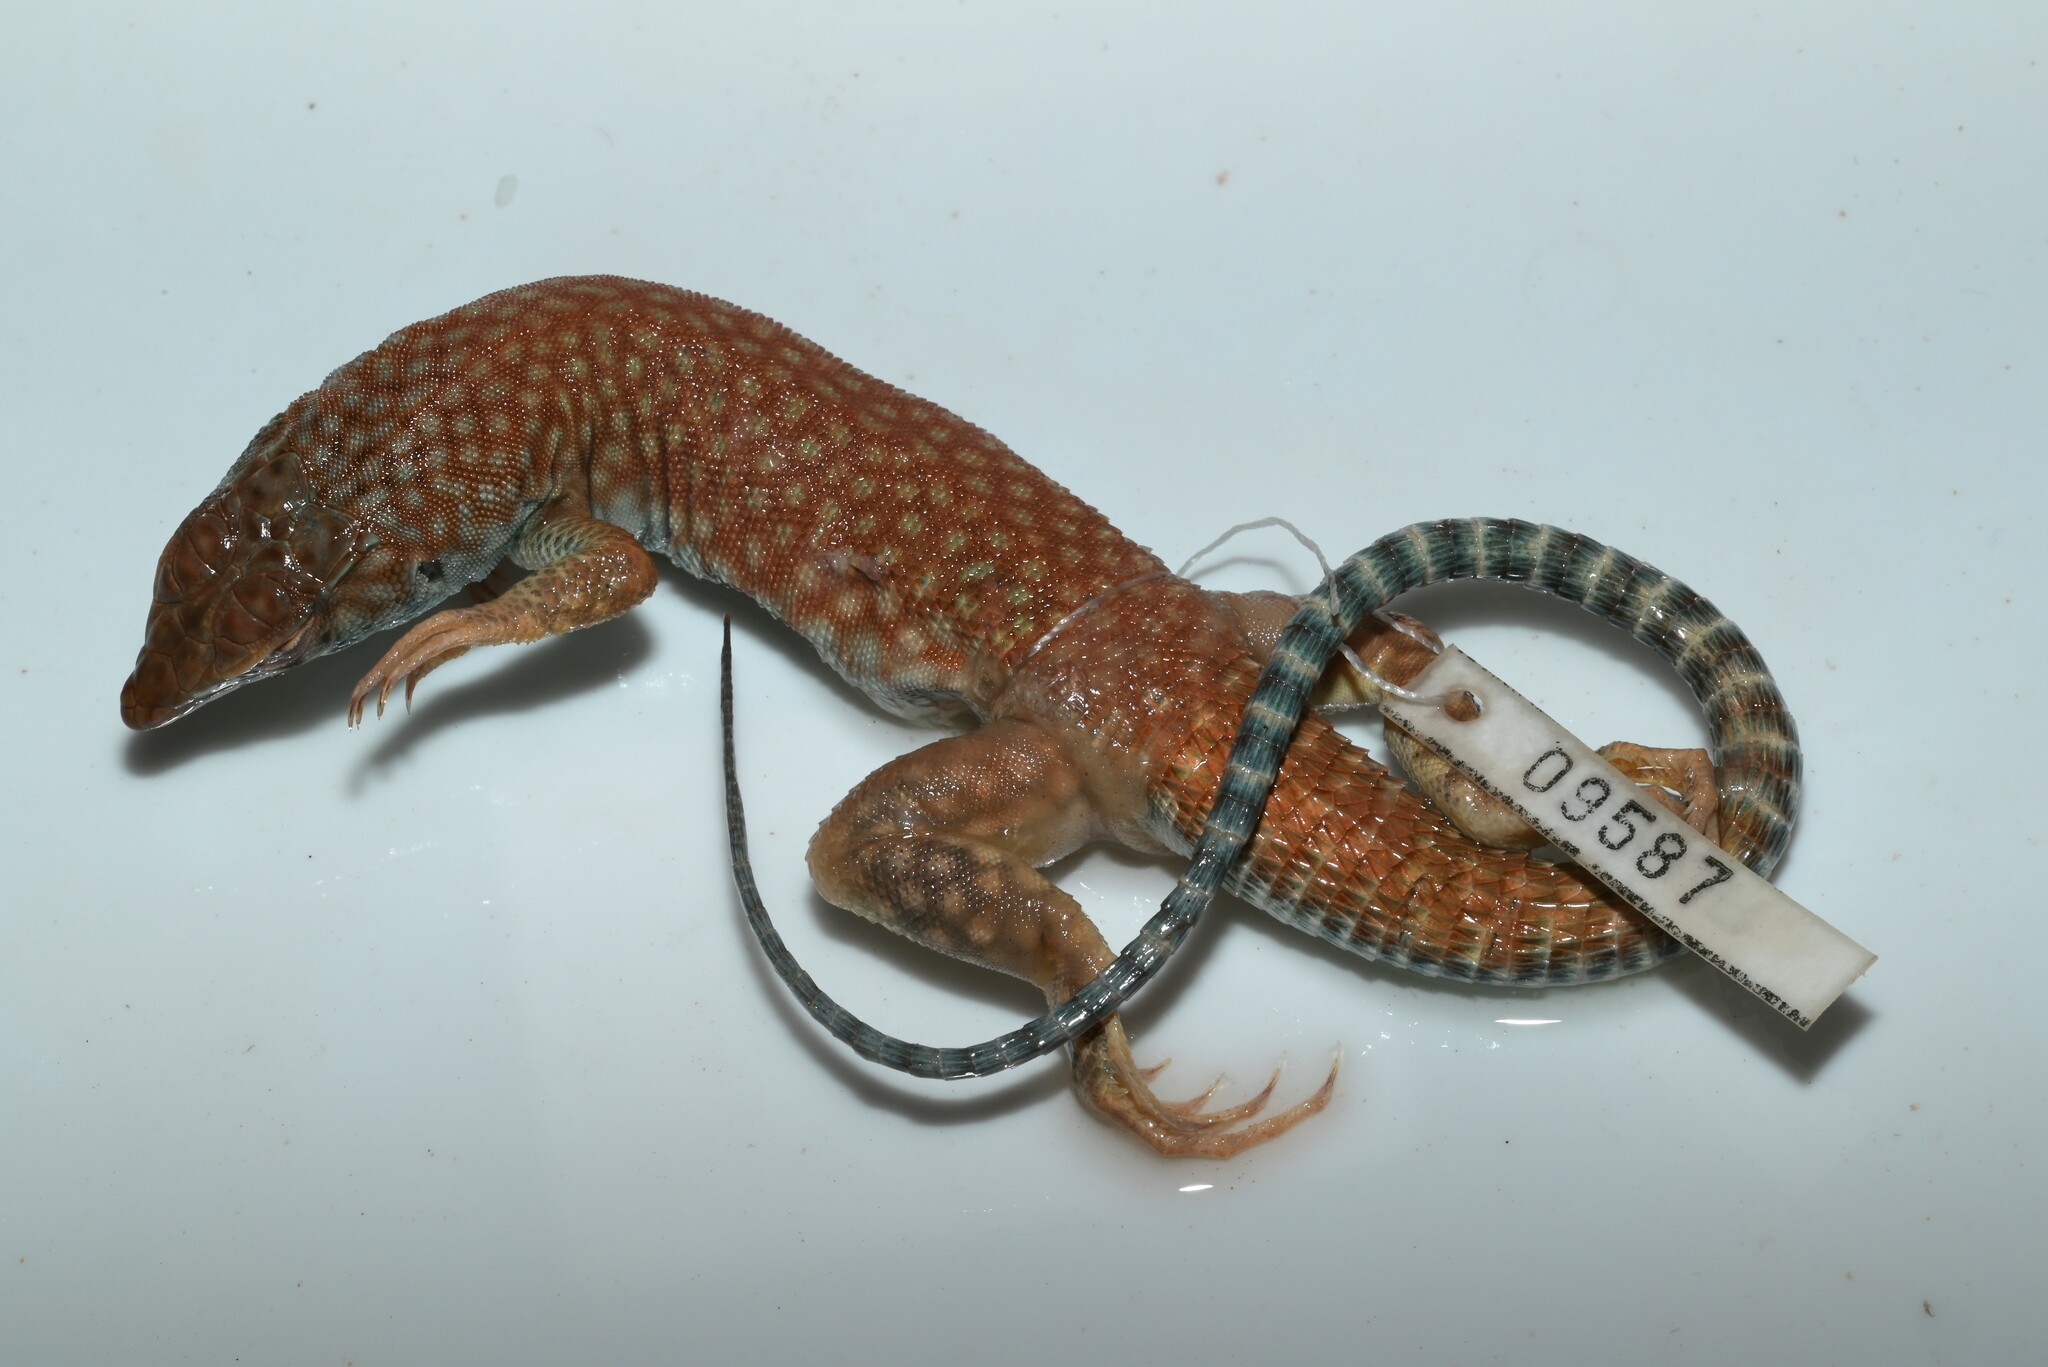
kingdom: Animalia
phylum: Chordata
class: Squamata
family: Lacertidae
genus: Acanthodactylus
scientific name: Acanthodactylus schmidti
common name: Schmidt's fringe-toed lizard
